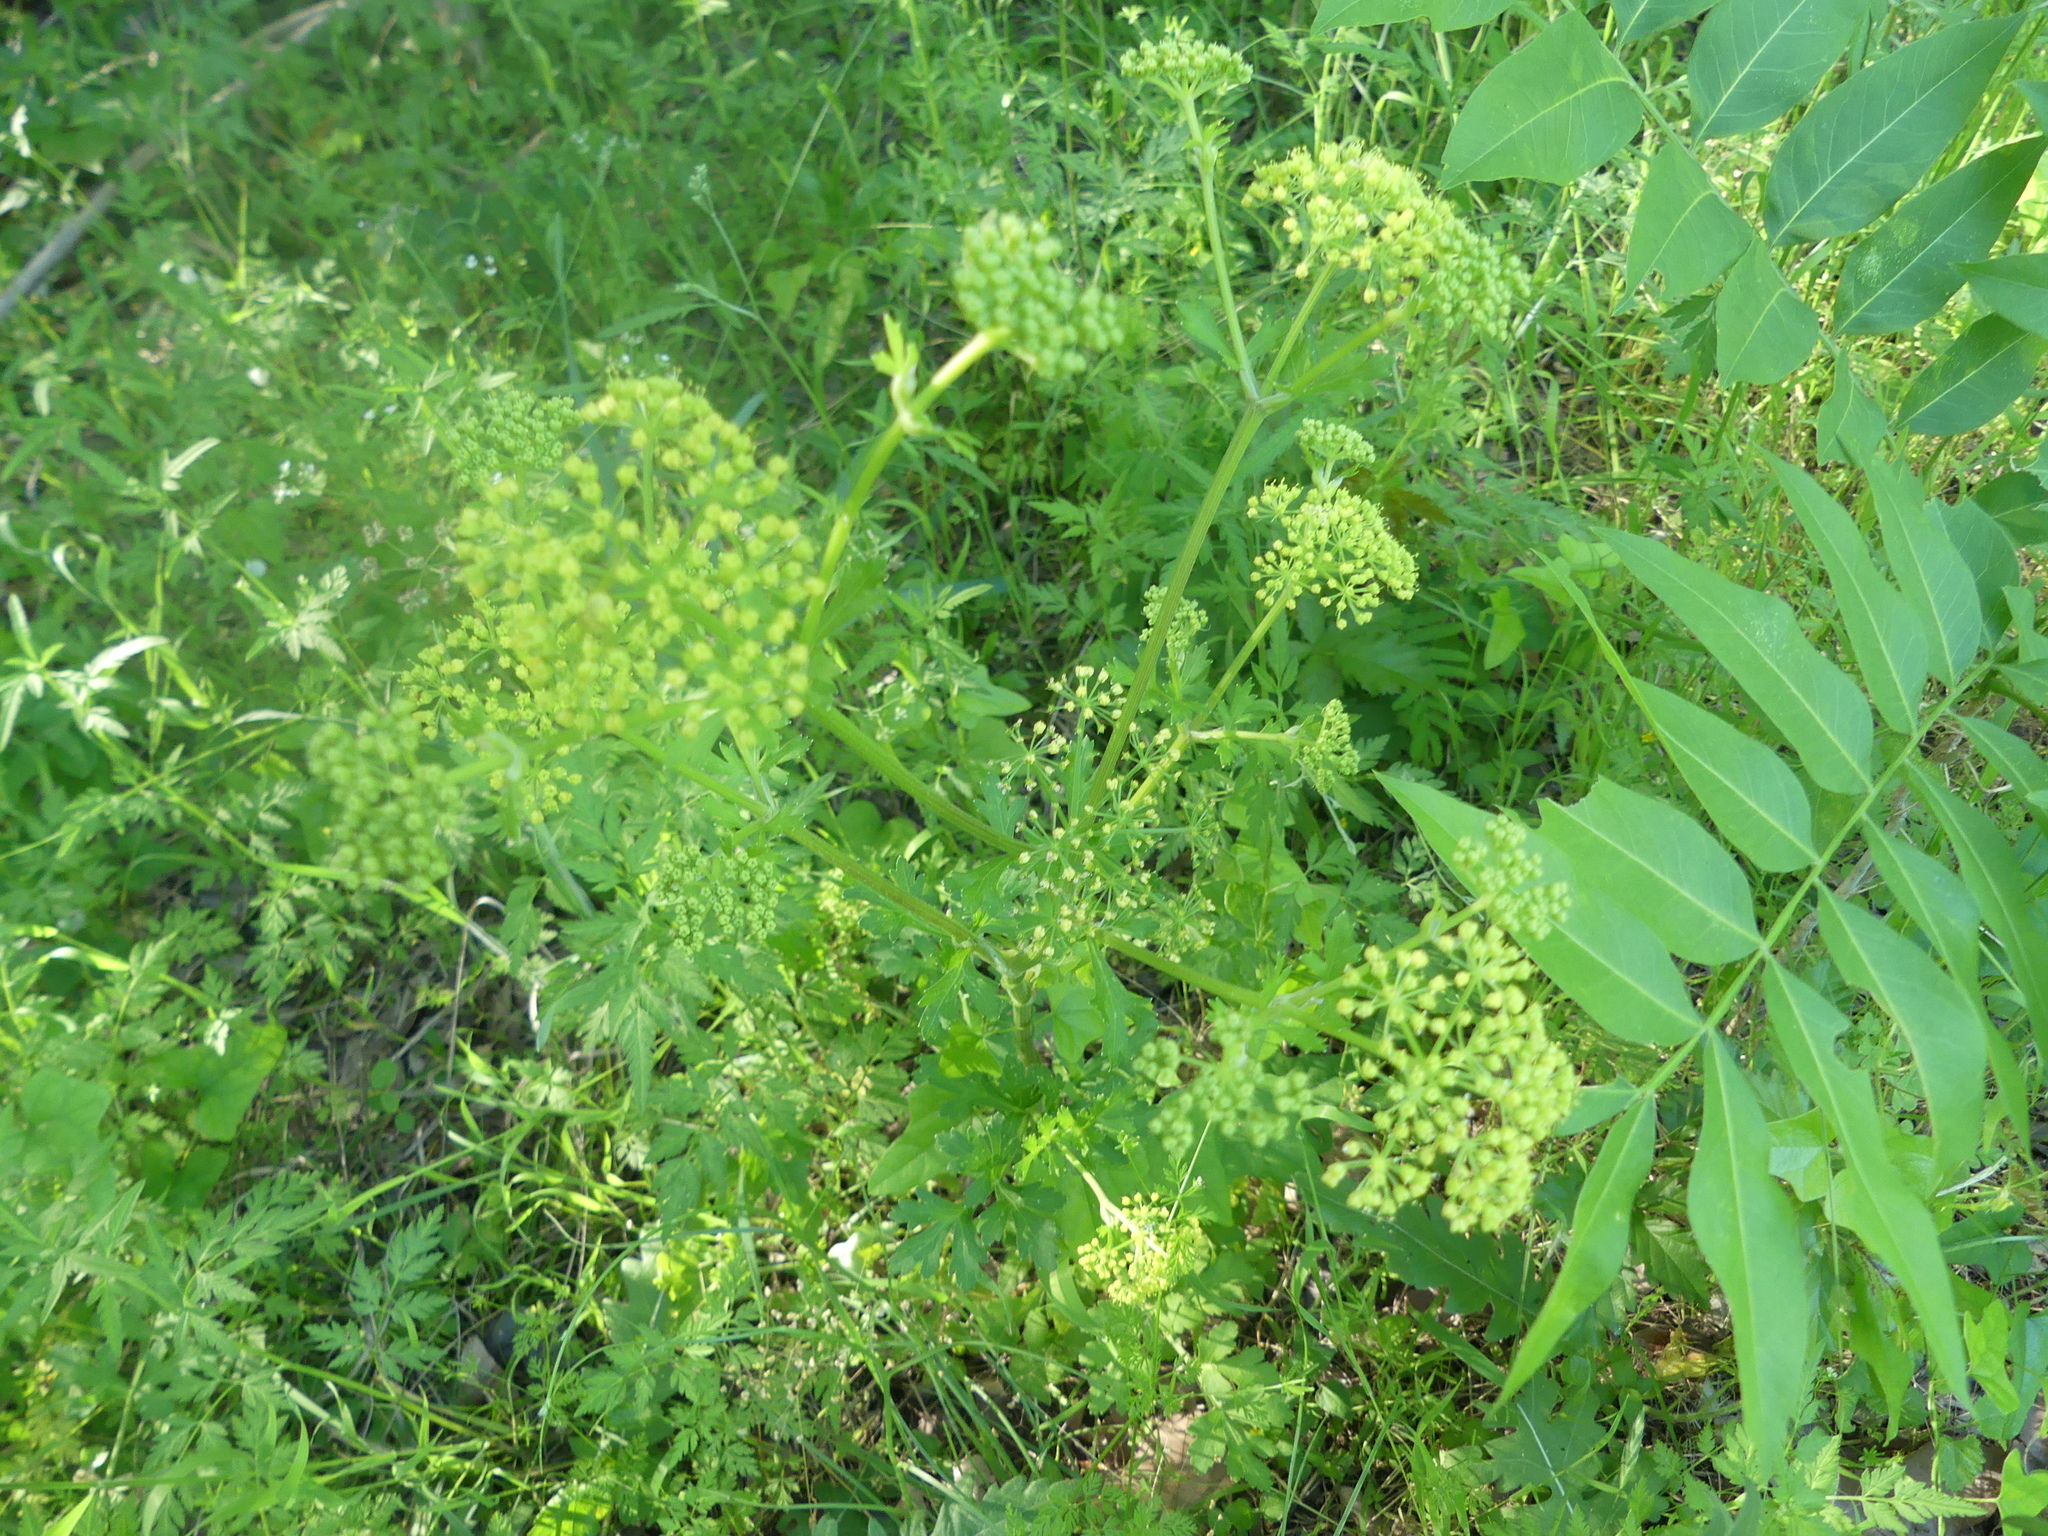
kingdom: Plantae
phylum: Tracheophyta
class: Magnoliopsida
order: Apiales
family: Apiaceae
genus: Polytaenia
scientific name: Polytaenia texana
